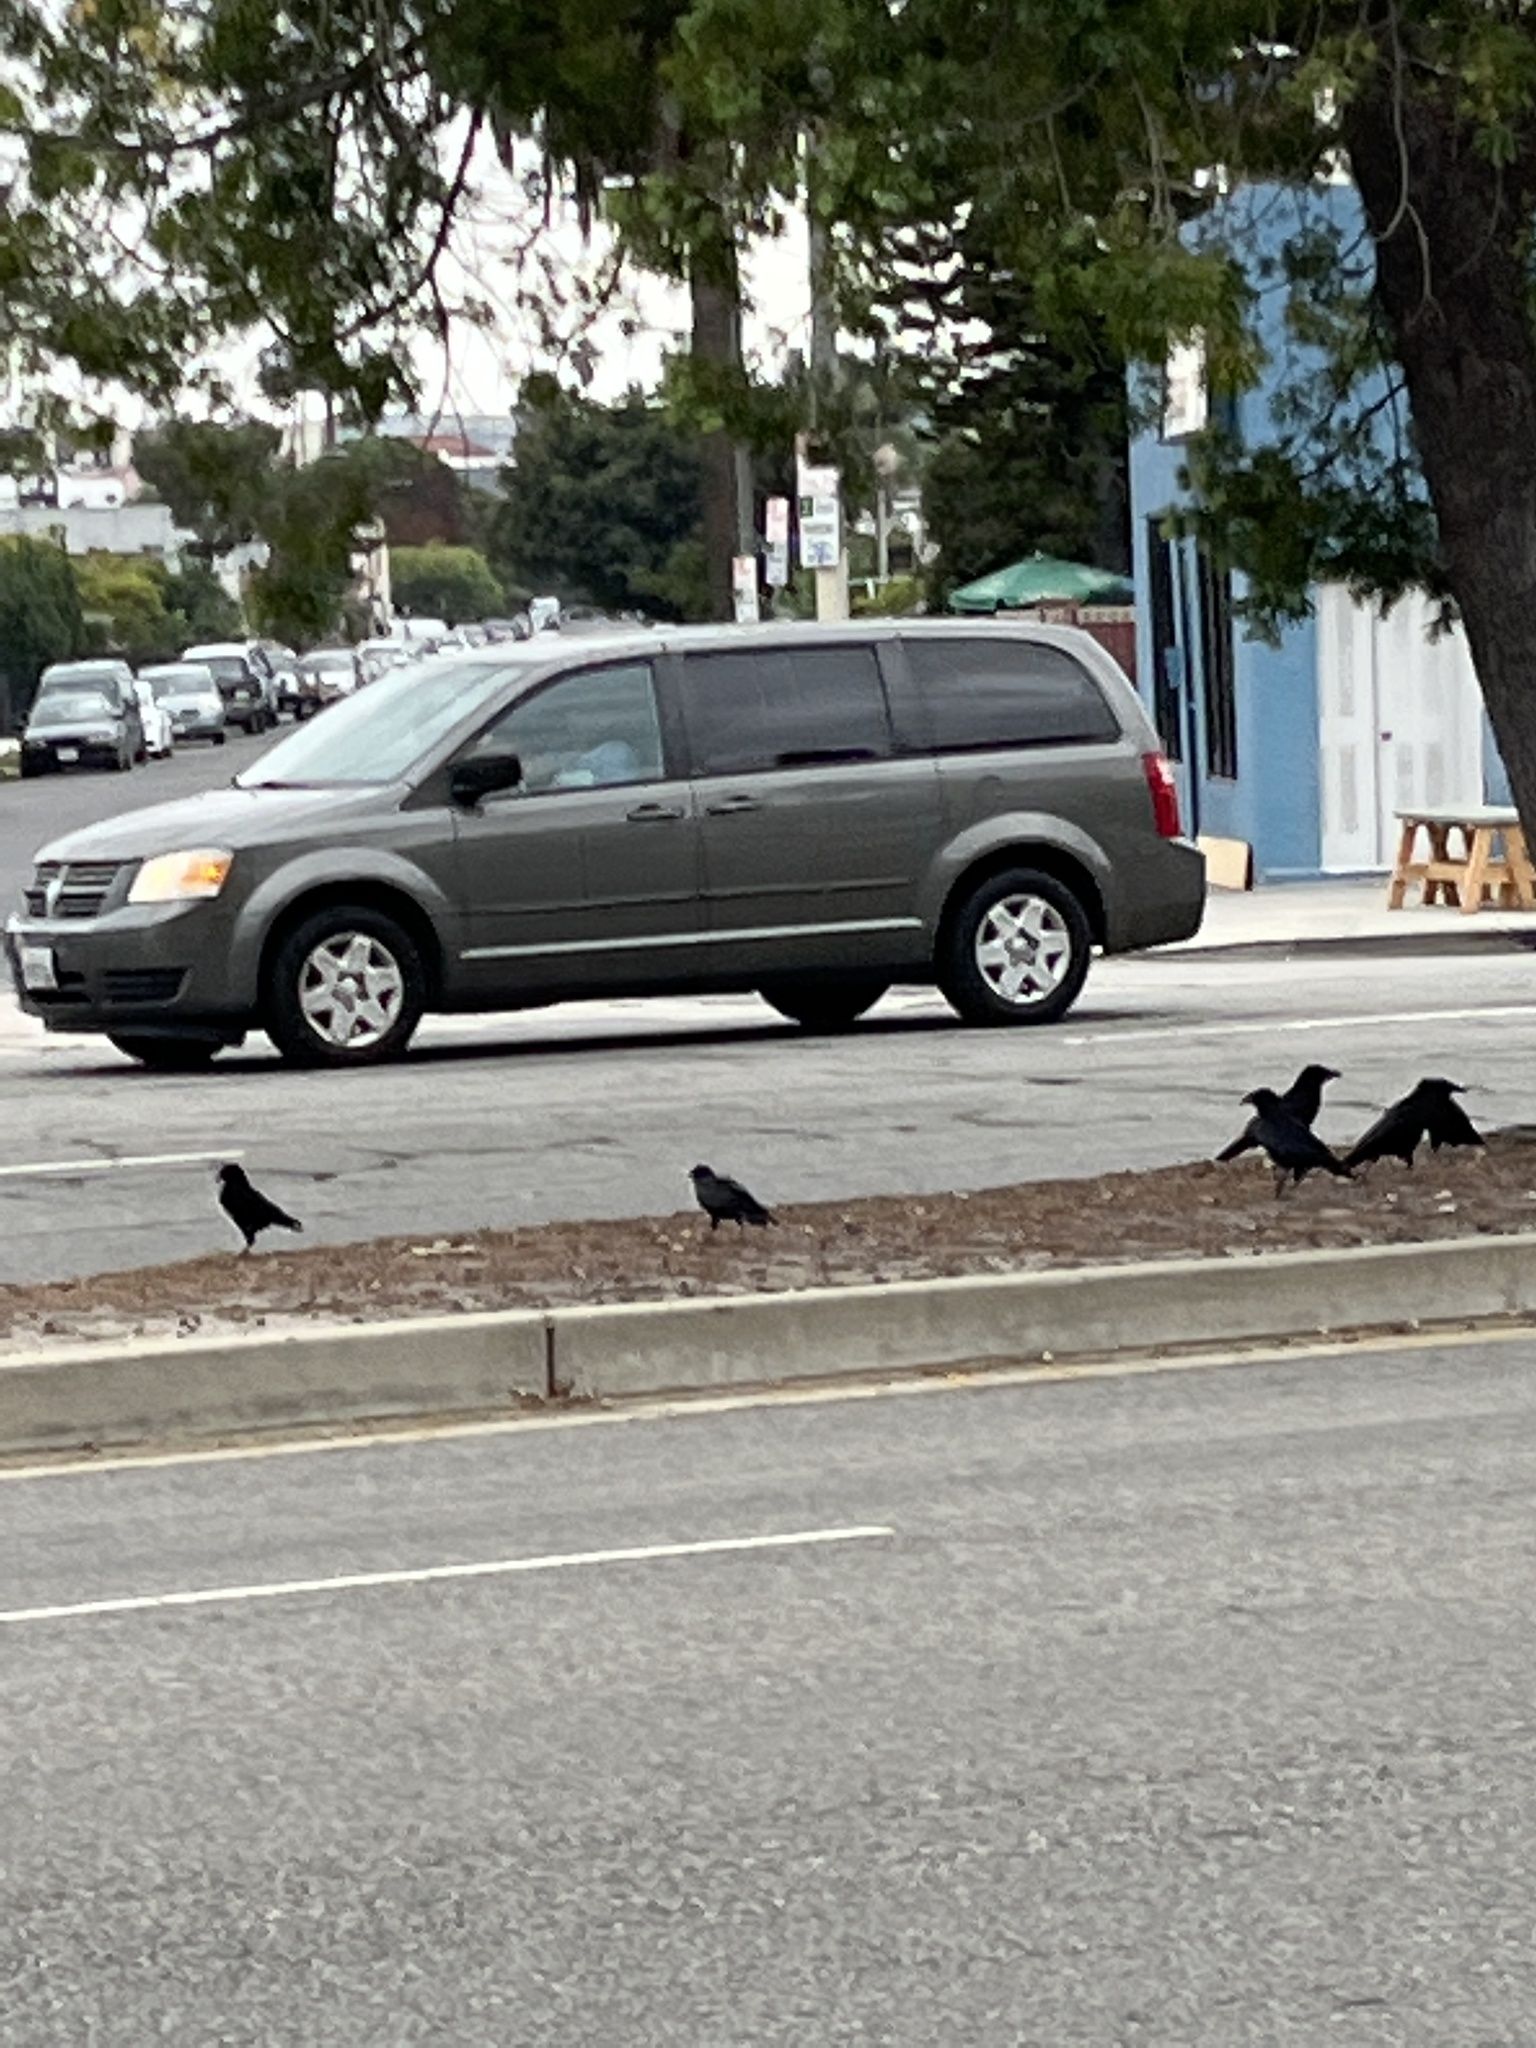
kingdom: Animalia
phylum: Chordata
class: Aves
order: Passeriformes
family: Corvidae
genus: Corvus
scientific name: Corvus brachyrhynchos
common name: American crow
